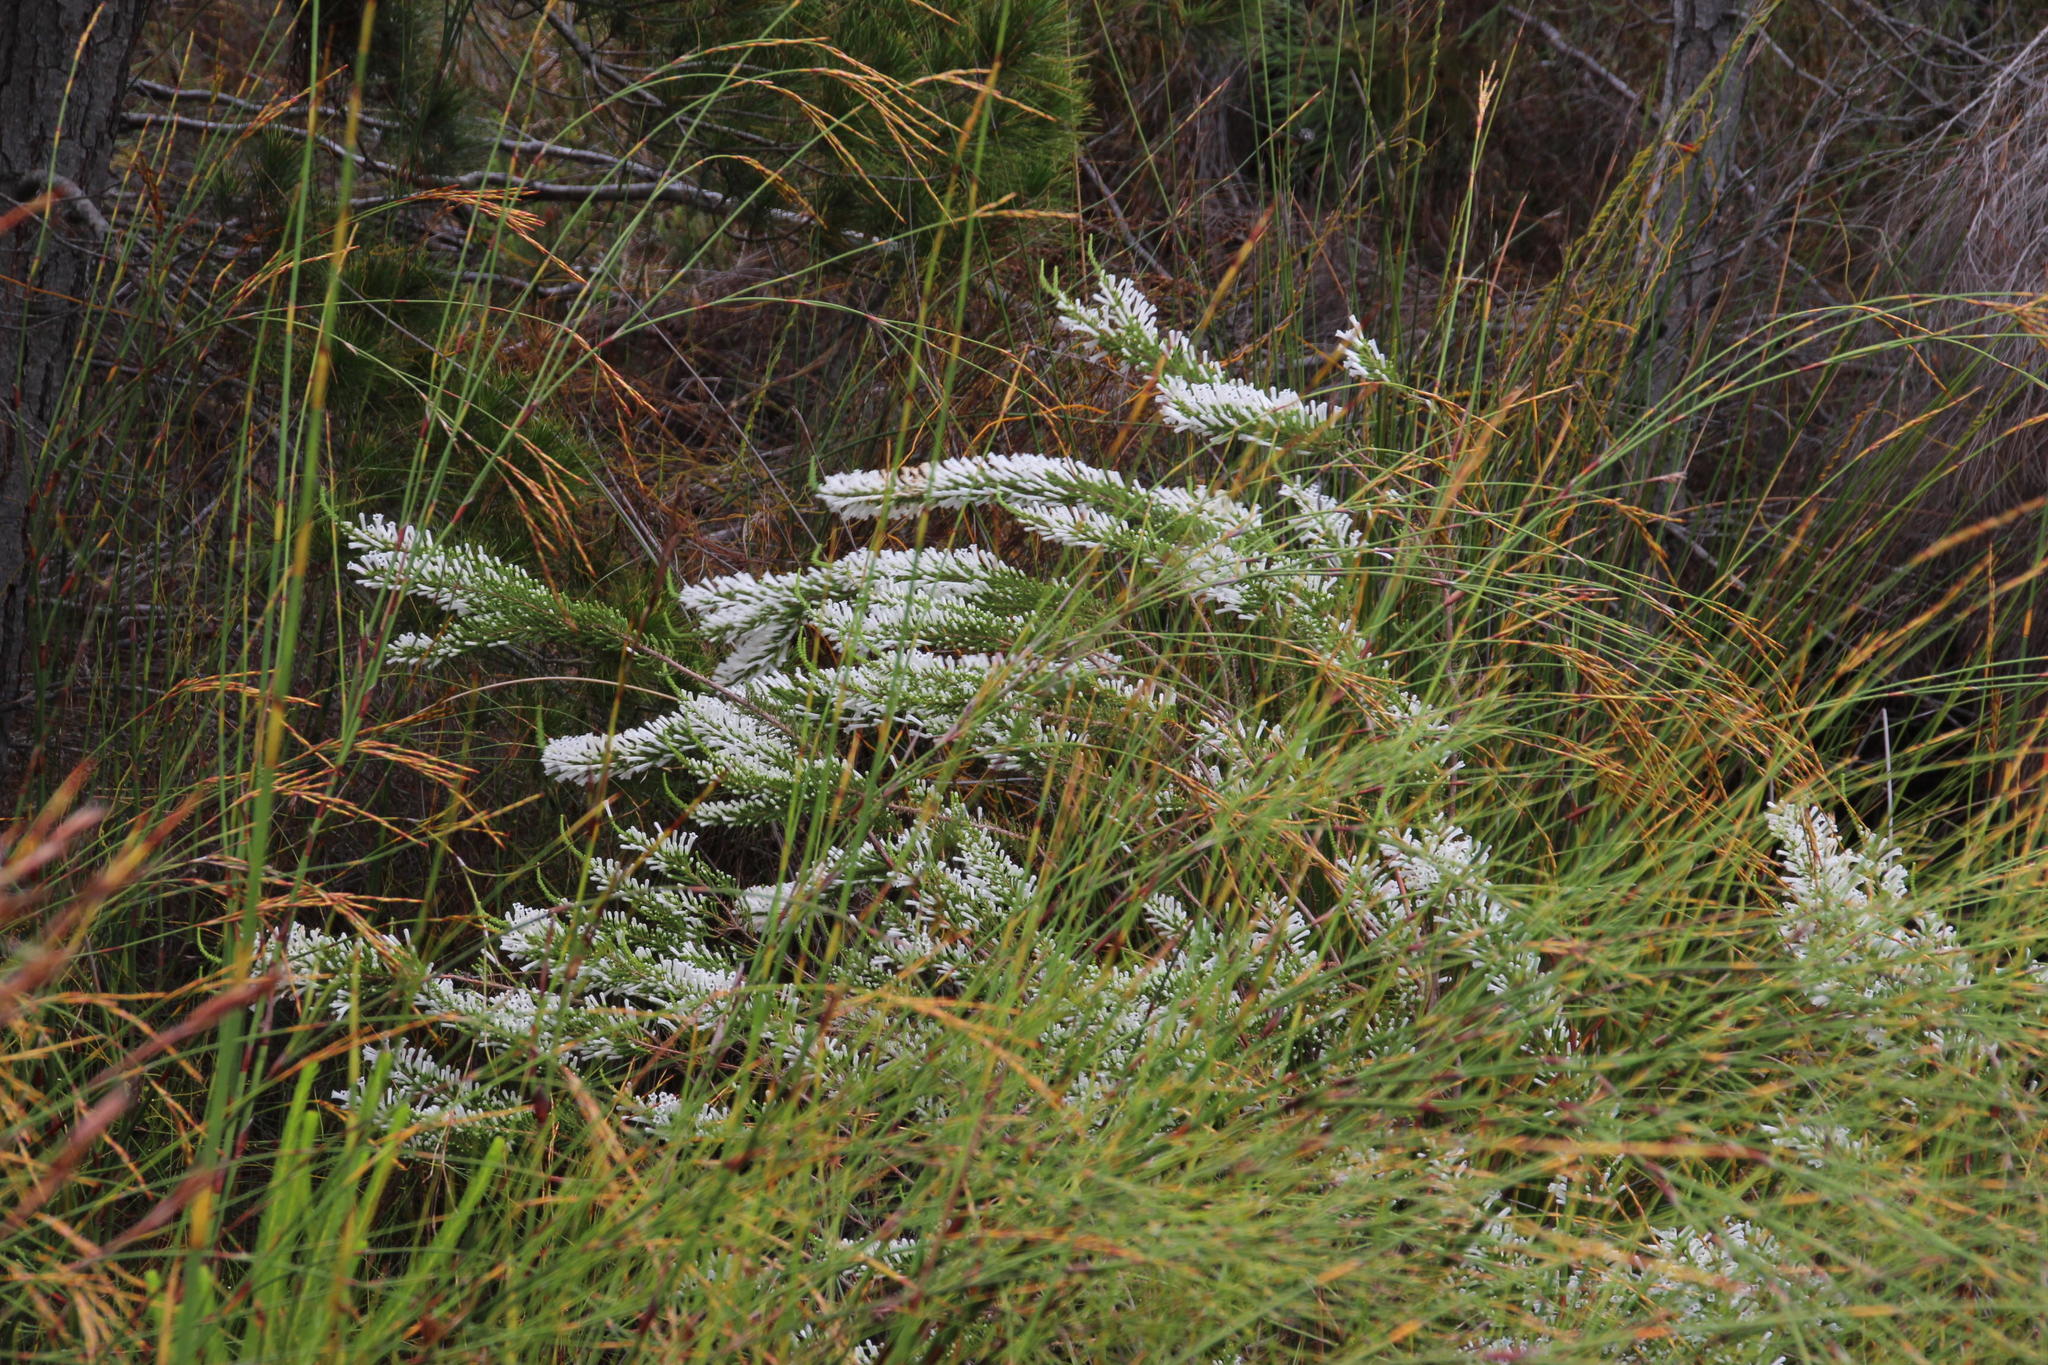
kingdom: Plantae
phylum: Tracheophyta
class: Magnoliopsida
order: Ericales
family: Ericaceae
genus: Erica
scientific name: Erica perspicua
